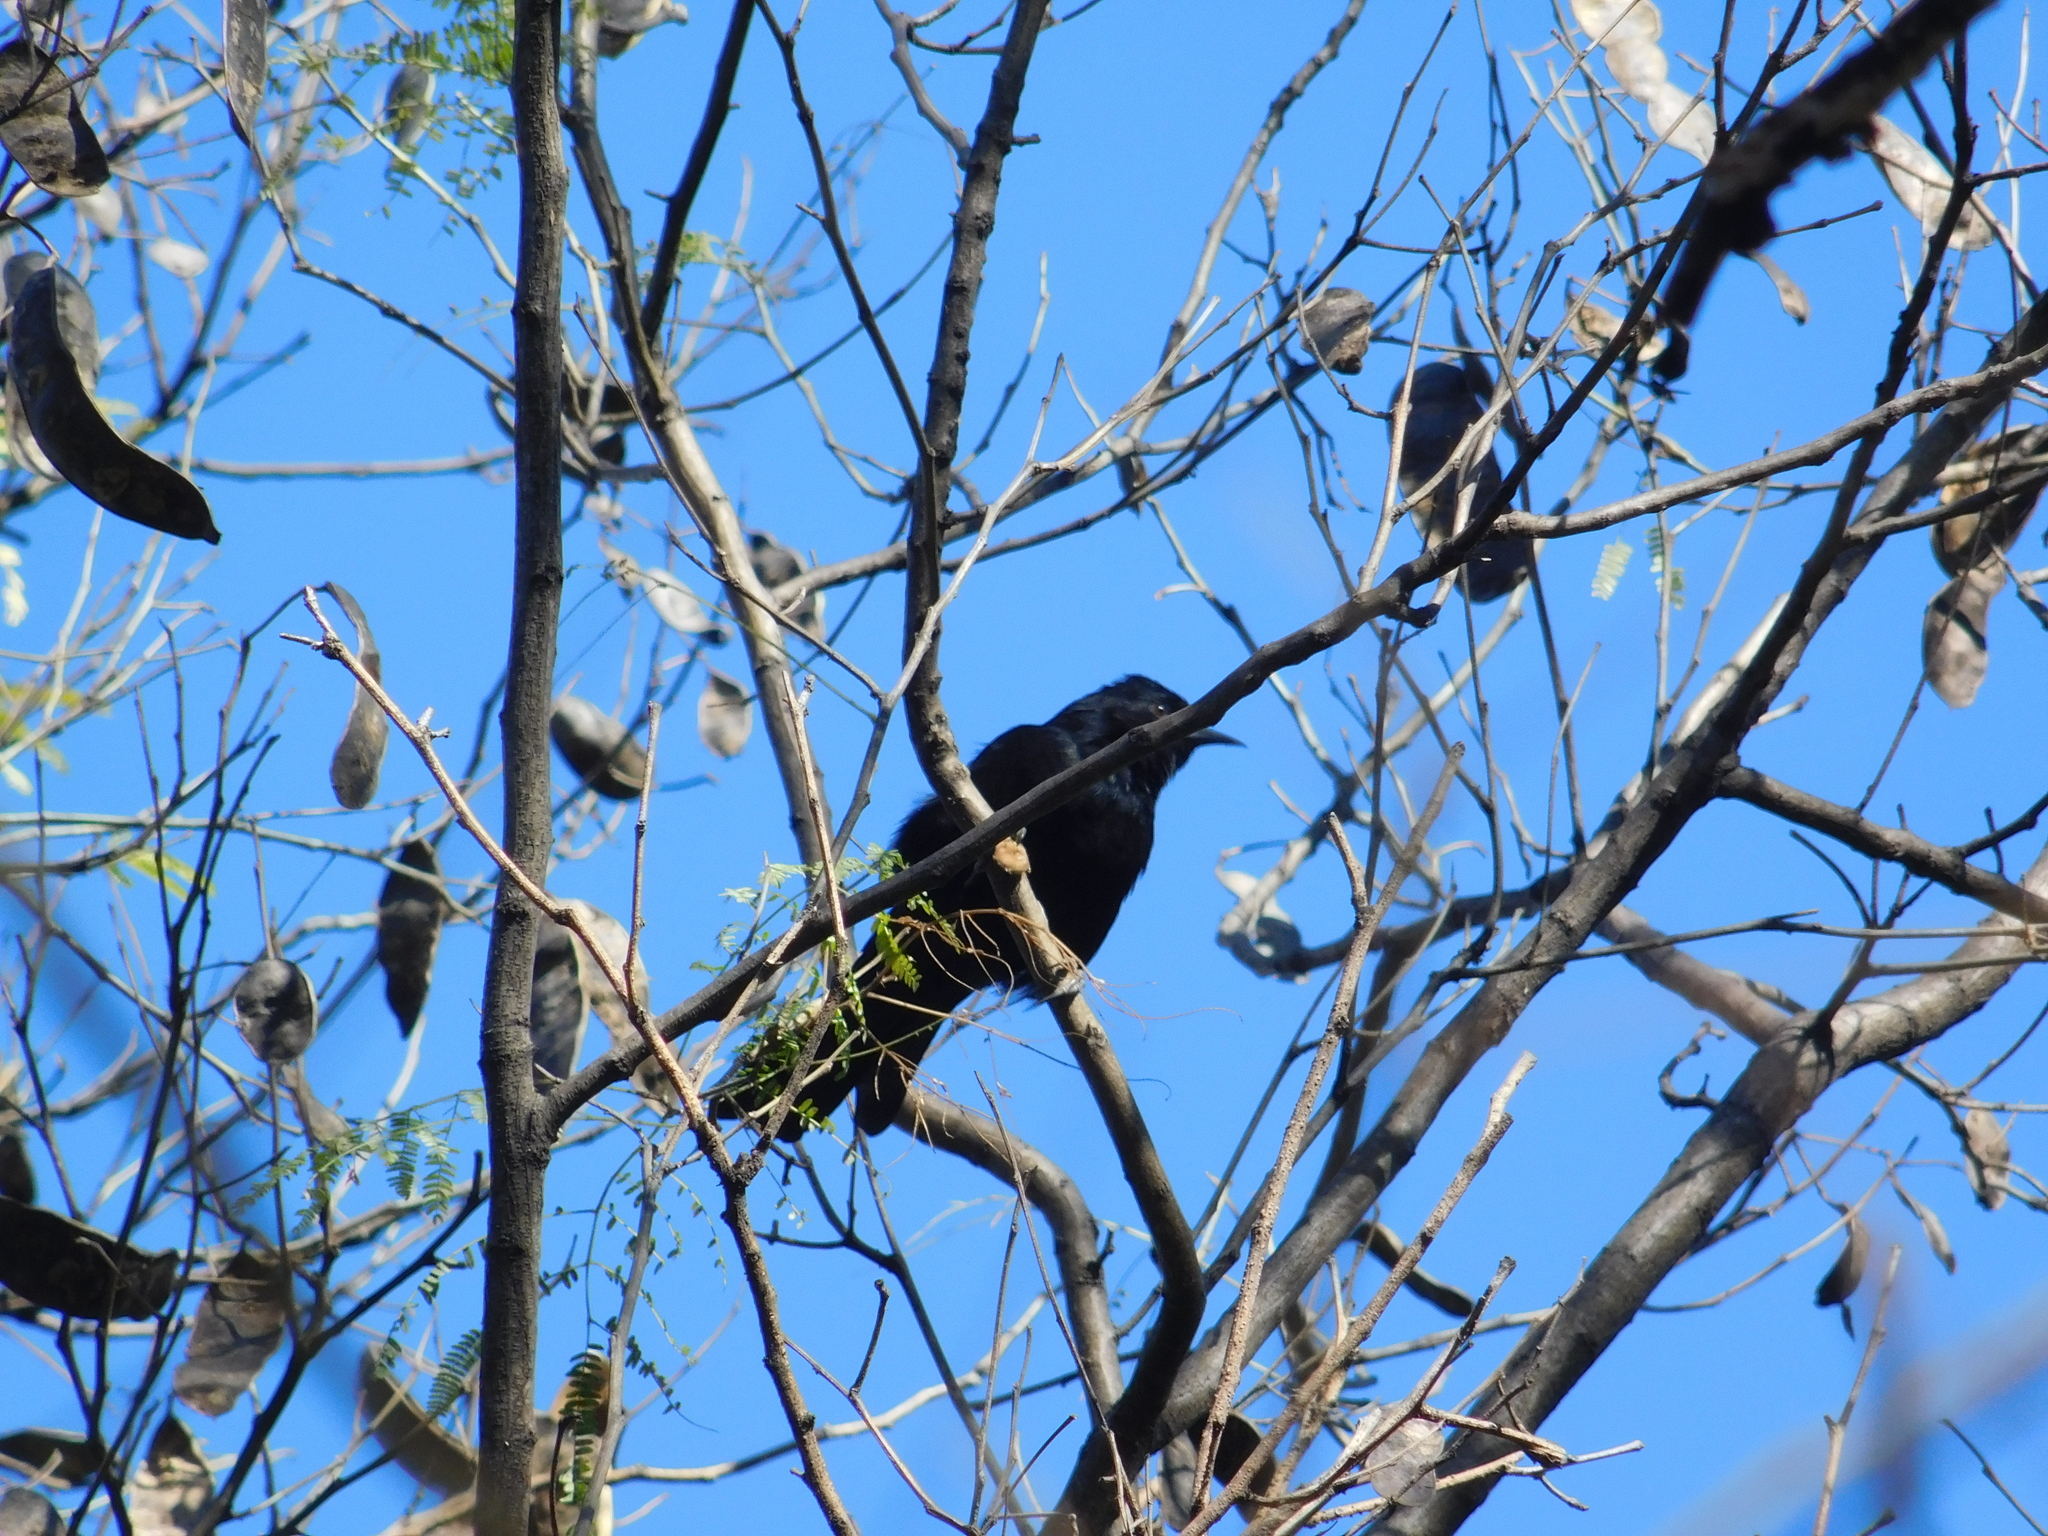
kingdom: Animalia
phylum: Chordata
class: Aves
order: Passeriformes
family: Icteridae
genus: Icterus
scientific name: Icterus cayanensis
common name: Epaulet oriole
